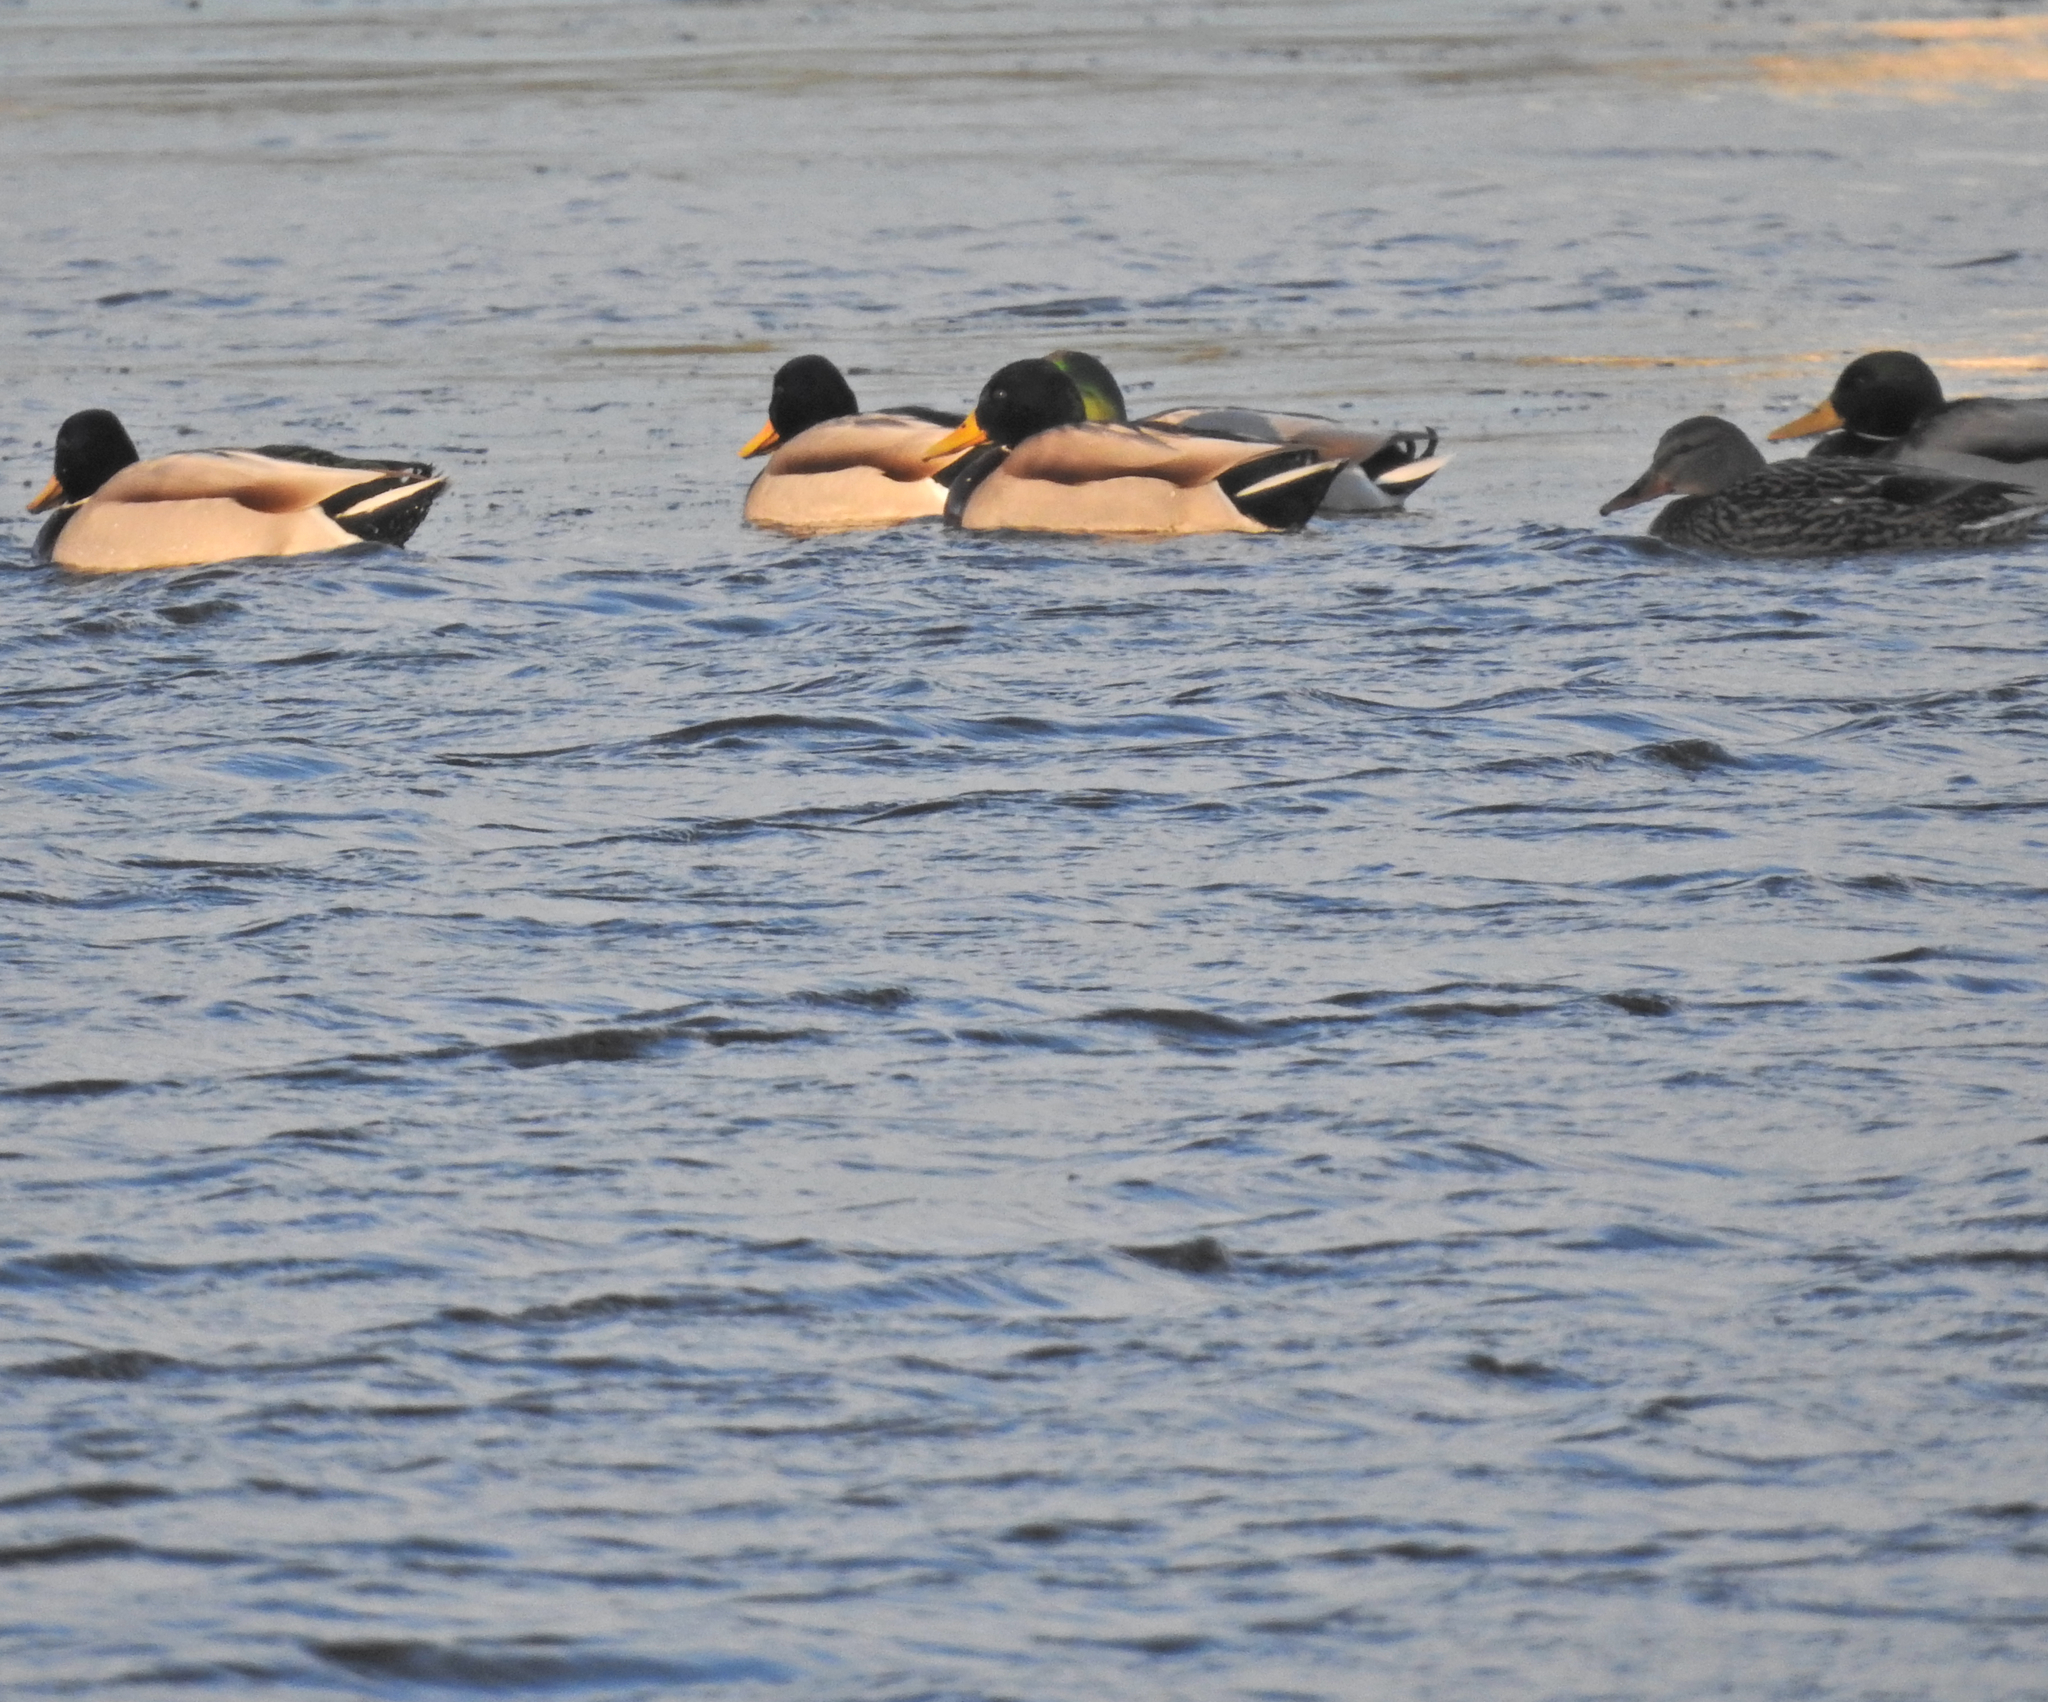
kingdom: Animalia
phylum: Chordata
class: Aves
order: Anseriformes
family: Anatidae
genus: Anas
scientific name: Anas platyrhynchos
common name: Mallard
